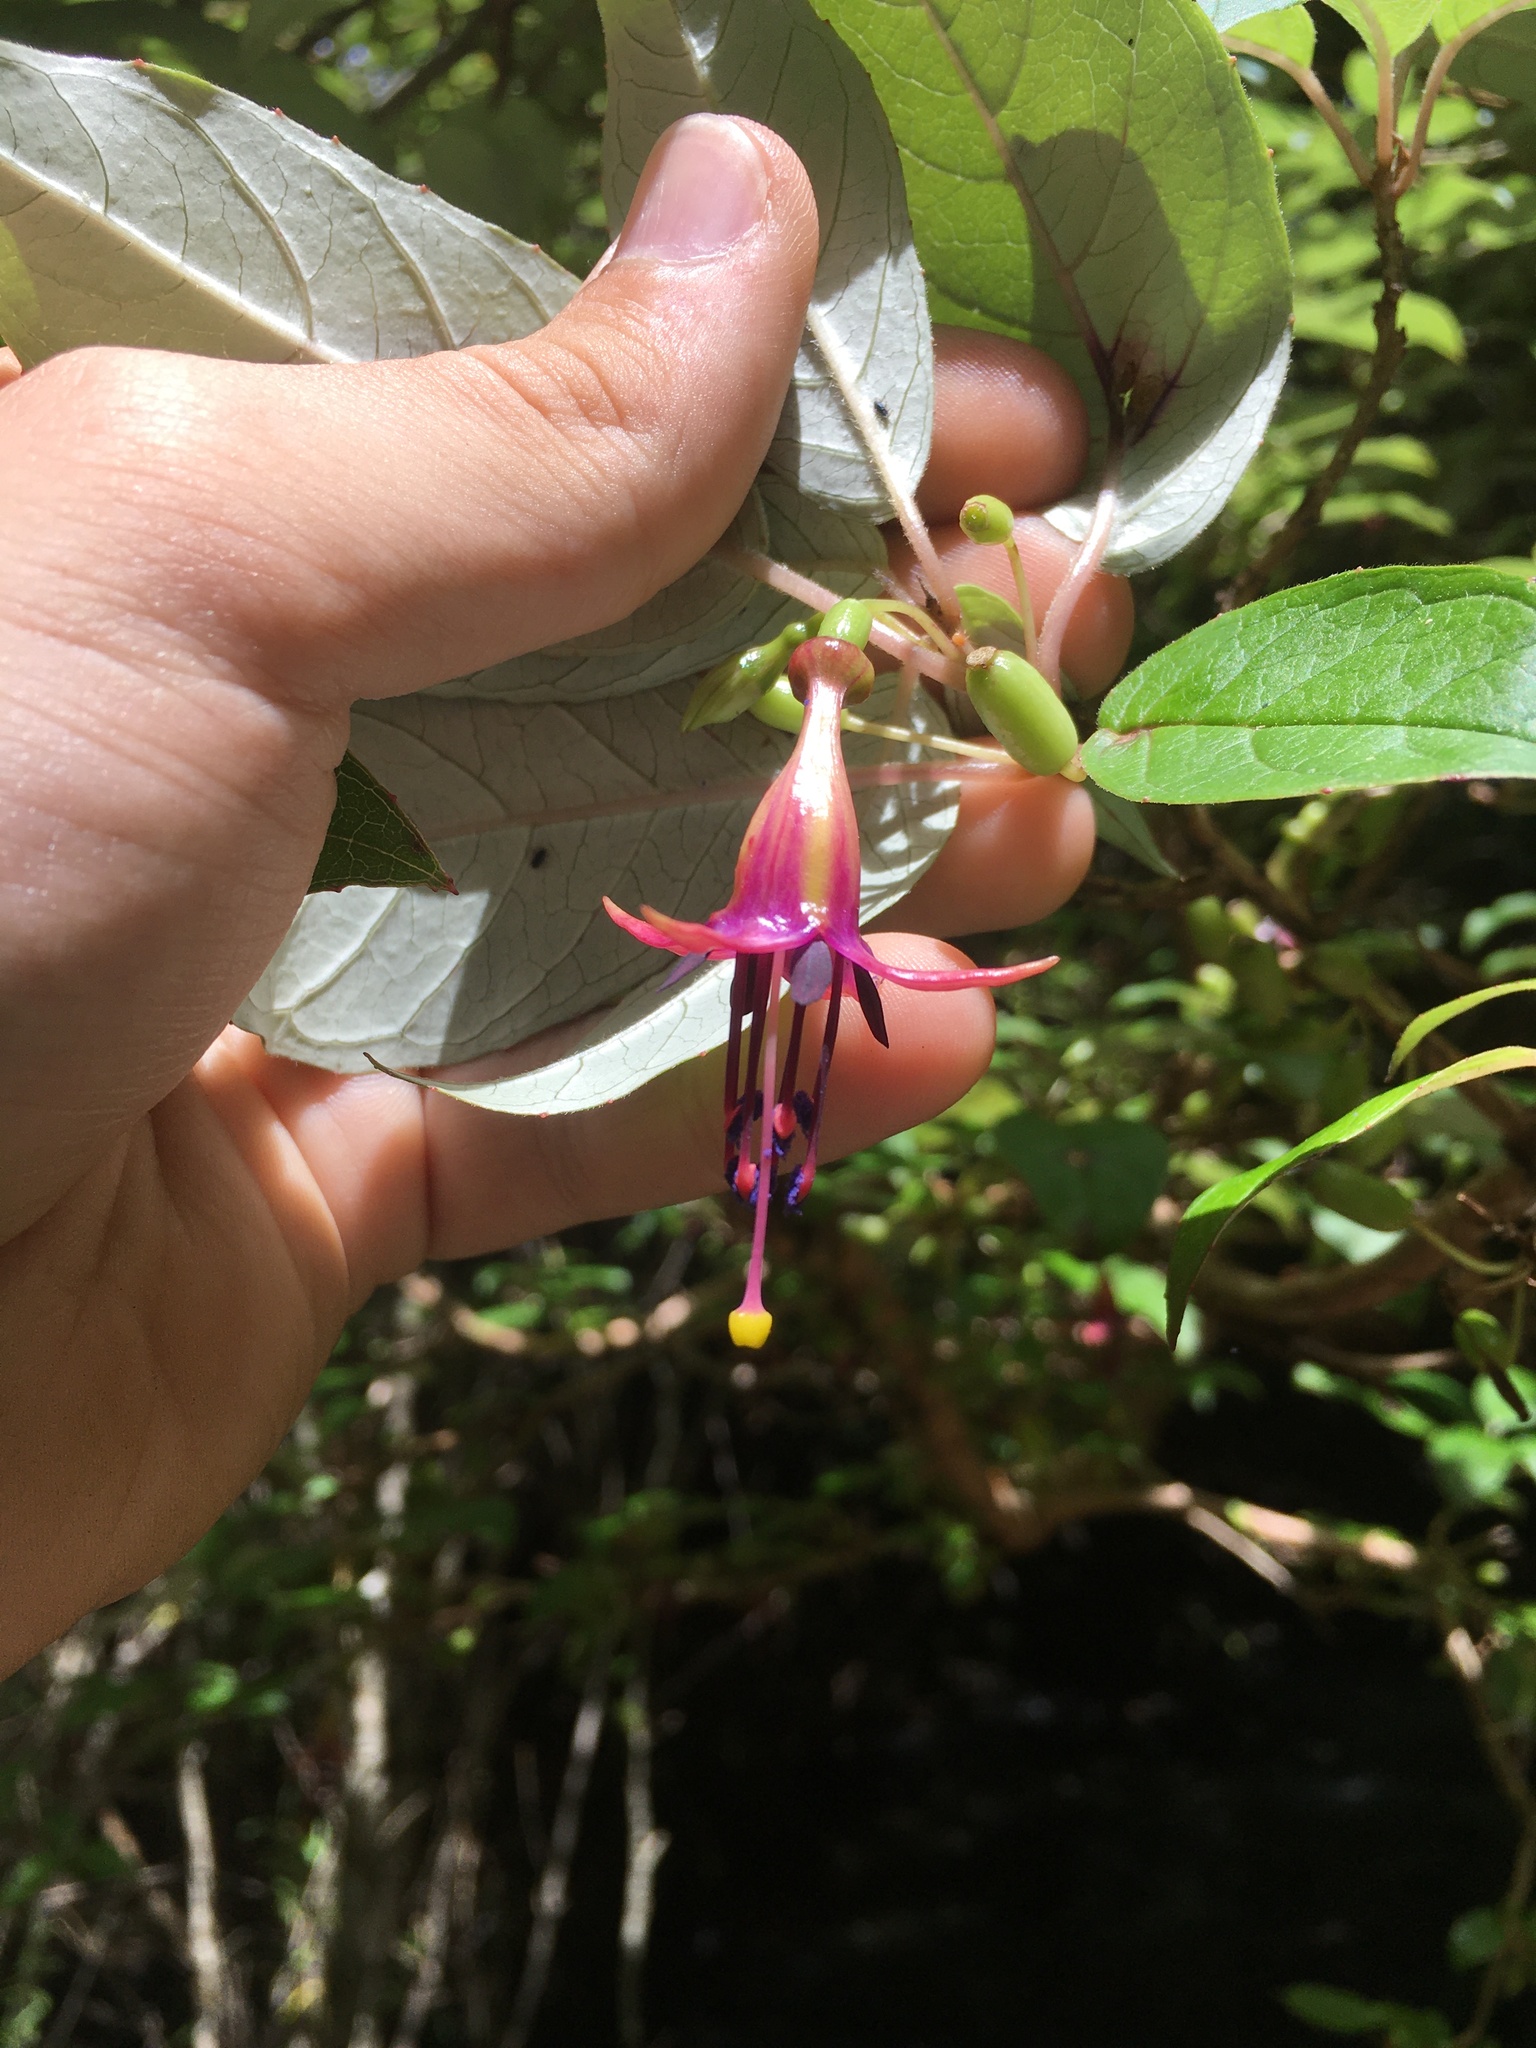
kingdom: Plantae
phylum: Tracheophyta
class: Magnoliopsida
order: Myrtales
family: Onagraceae
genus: Fuchsia
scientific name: Fuchsia excorticata
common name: Tree fuchsia
